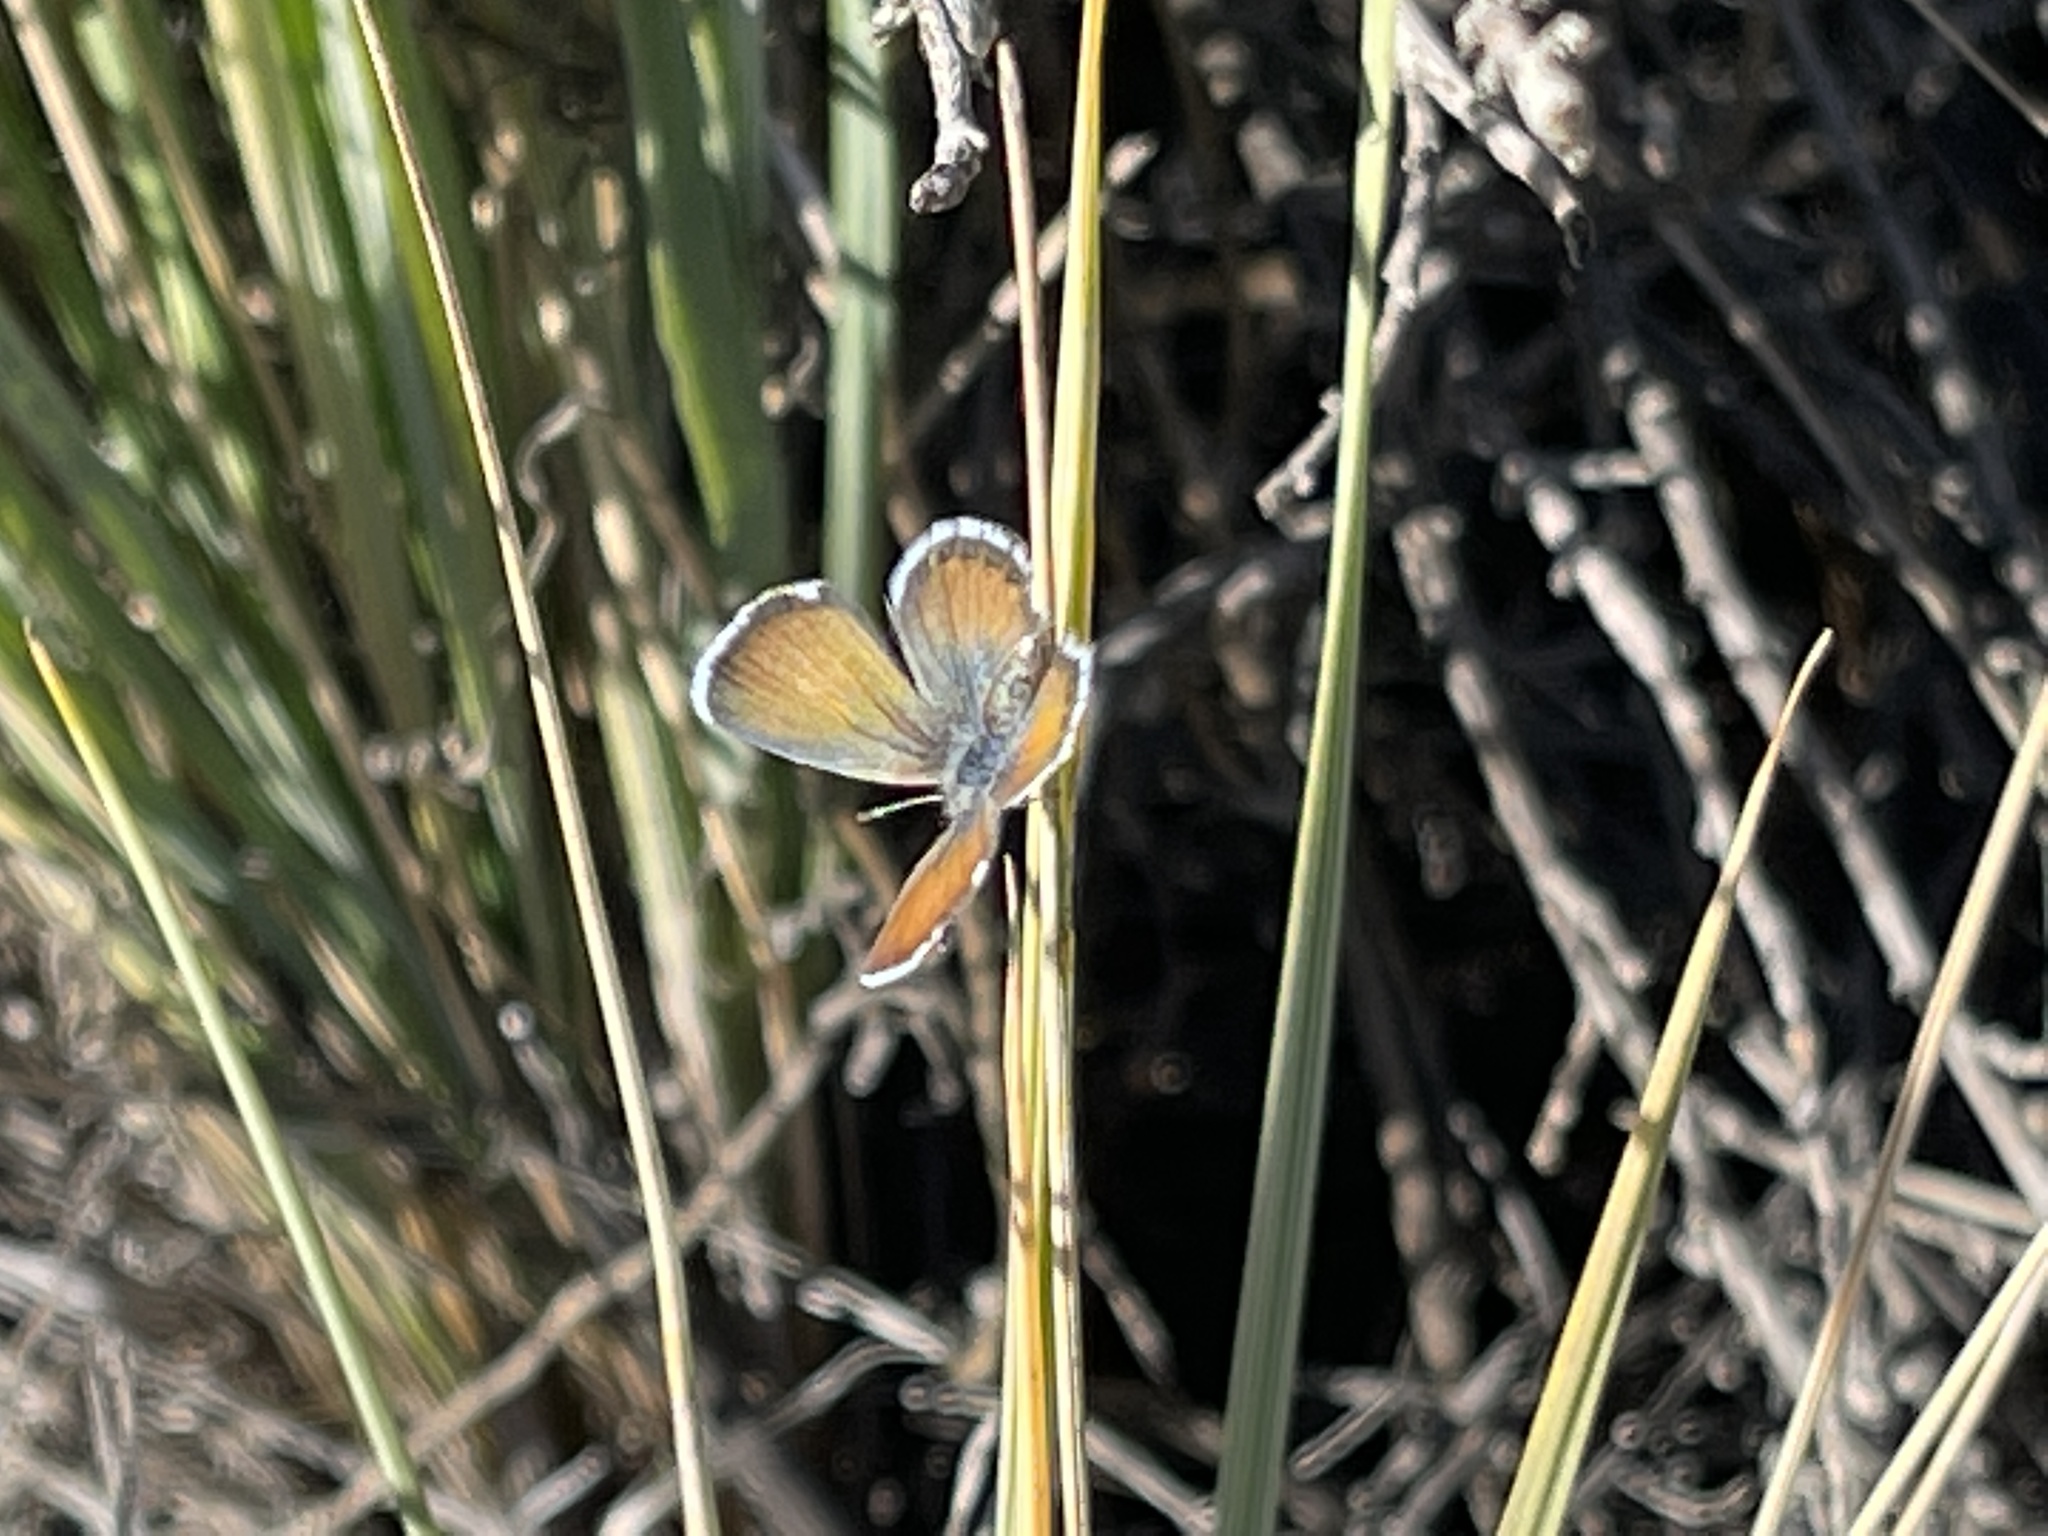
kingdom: Animalia
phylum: Arthropoda
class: Insecta
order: Lepidoptera
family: Lycaenidae
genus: Brephidium
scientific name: Brephidium exilis
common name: Pygmy blue
